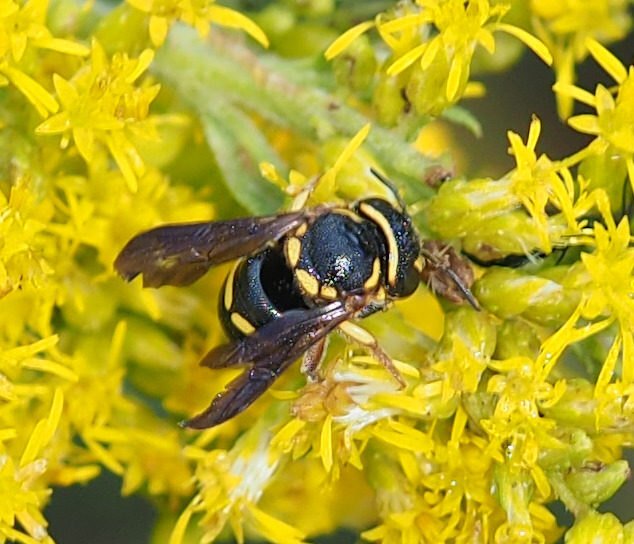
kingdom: Animalia
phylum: Arthropoda
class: Insecta
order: Hymenoptera
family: Megachilidae
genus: Anthidiellum
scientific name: Anthidiellum notatum
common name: Northern rotund-resin bee
